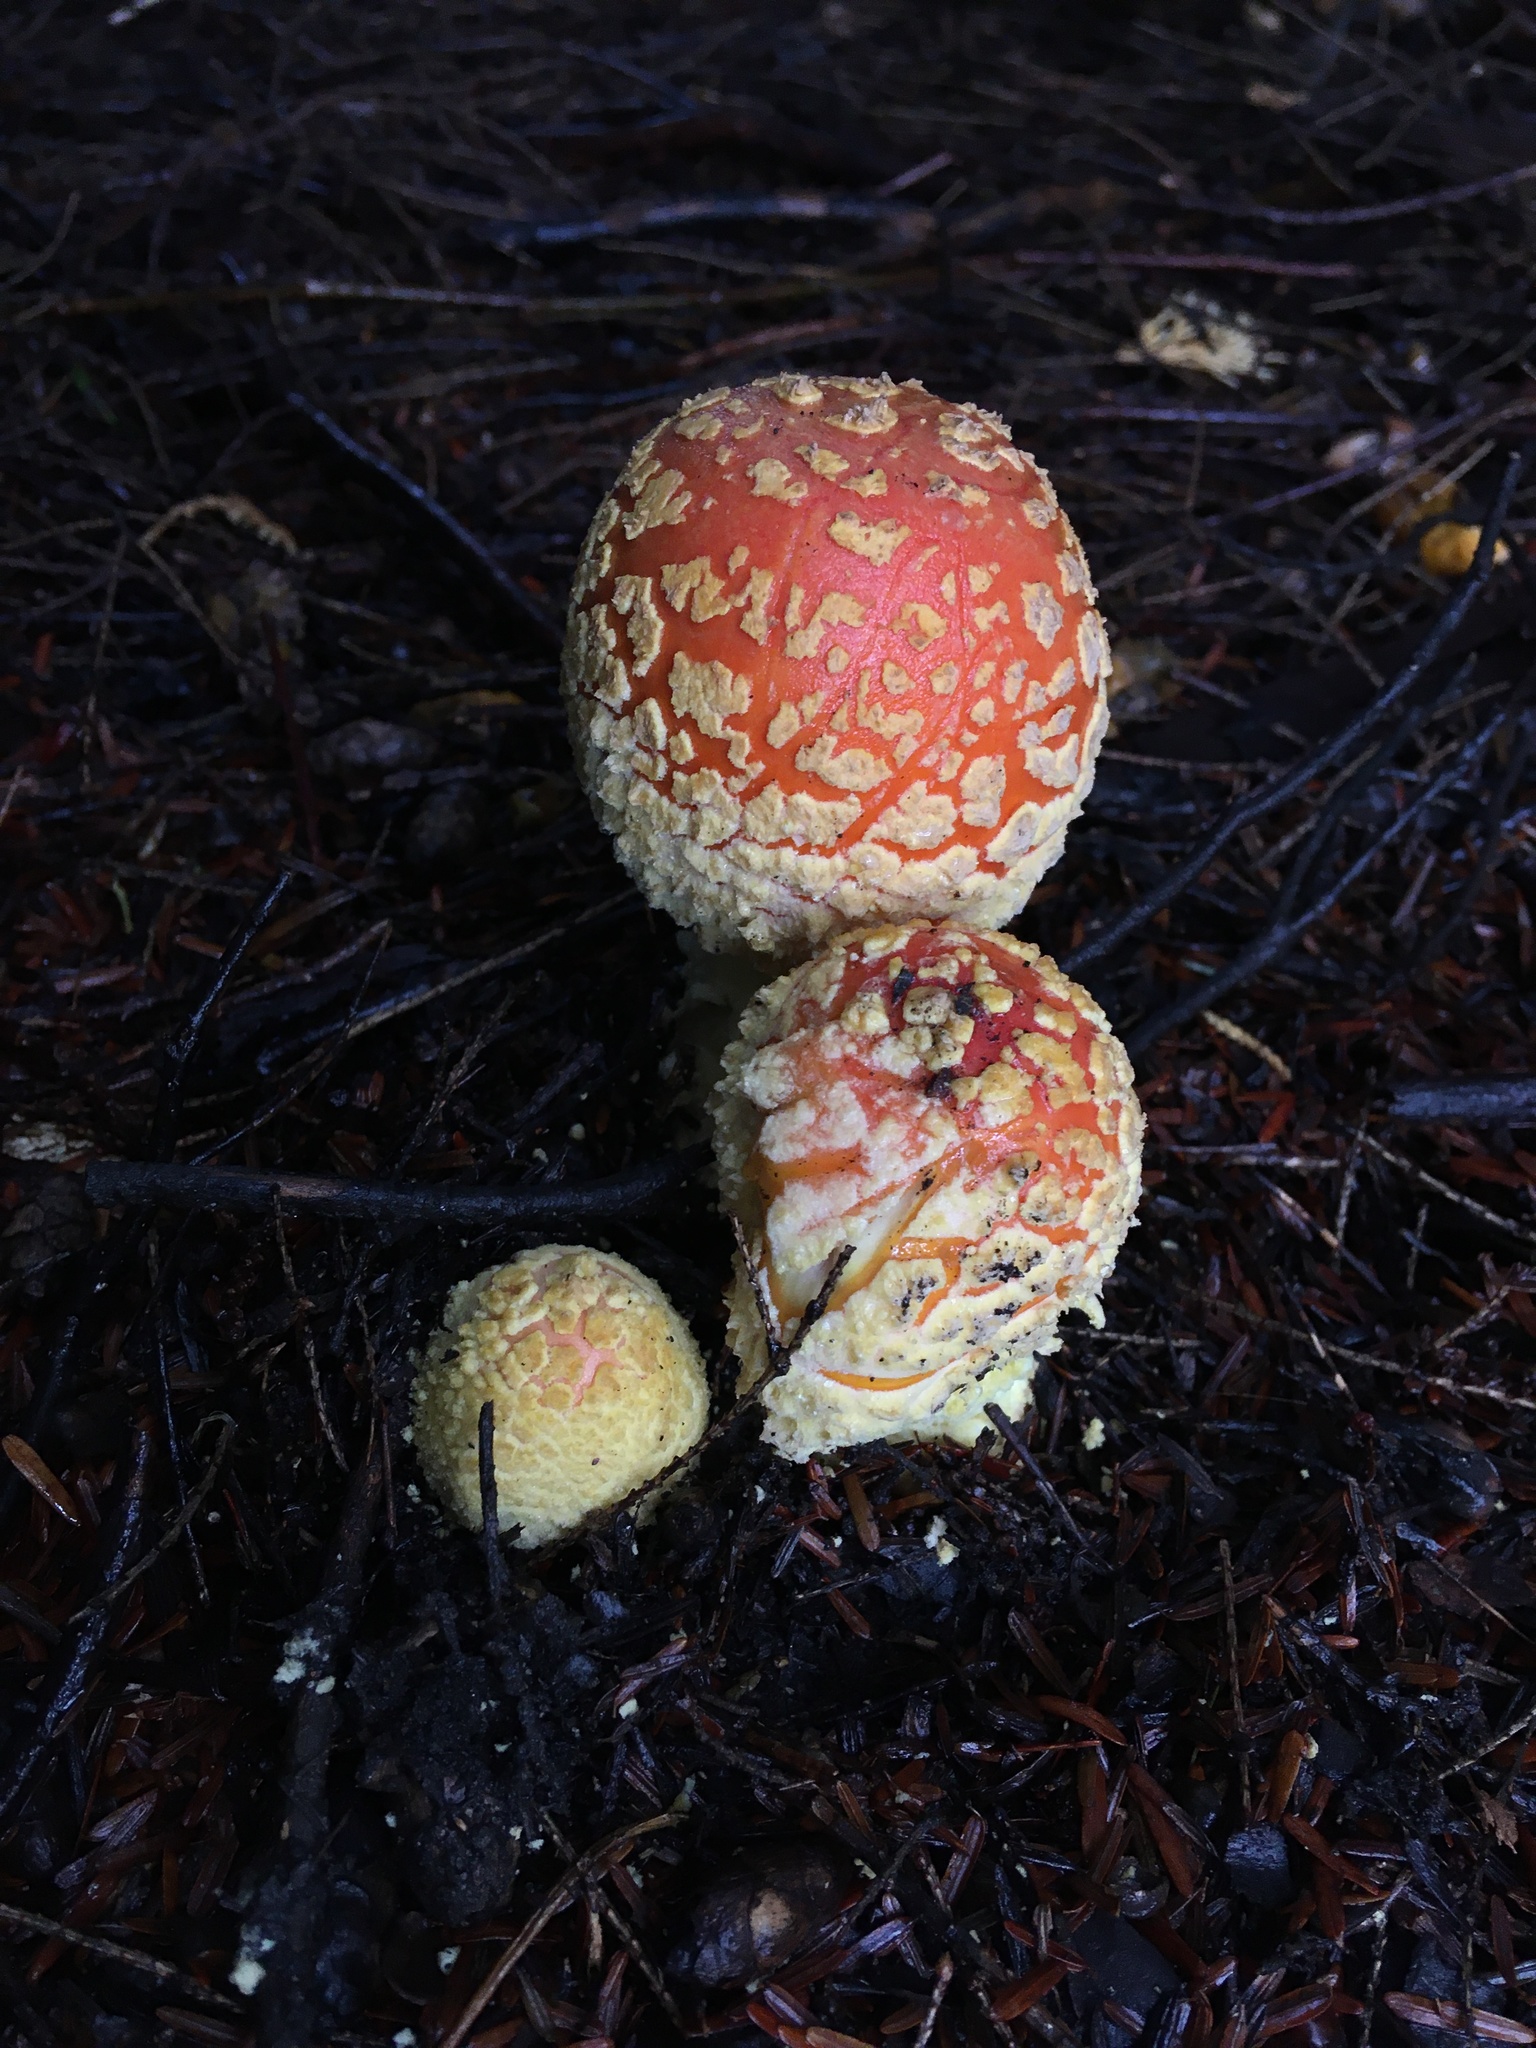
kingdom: Fungi
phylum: Basidiomycota
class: Agaricomycetes
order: Agaricales
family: Amanitaceae
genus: Amanita
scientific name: Amanita muscaria
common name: Fly agaric
